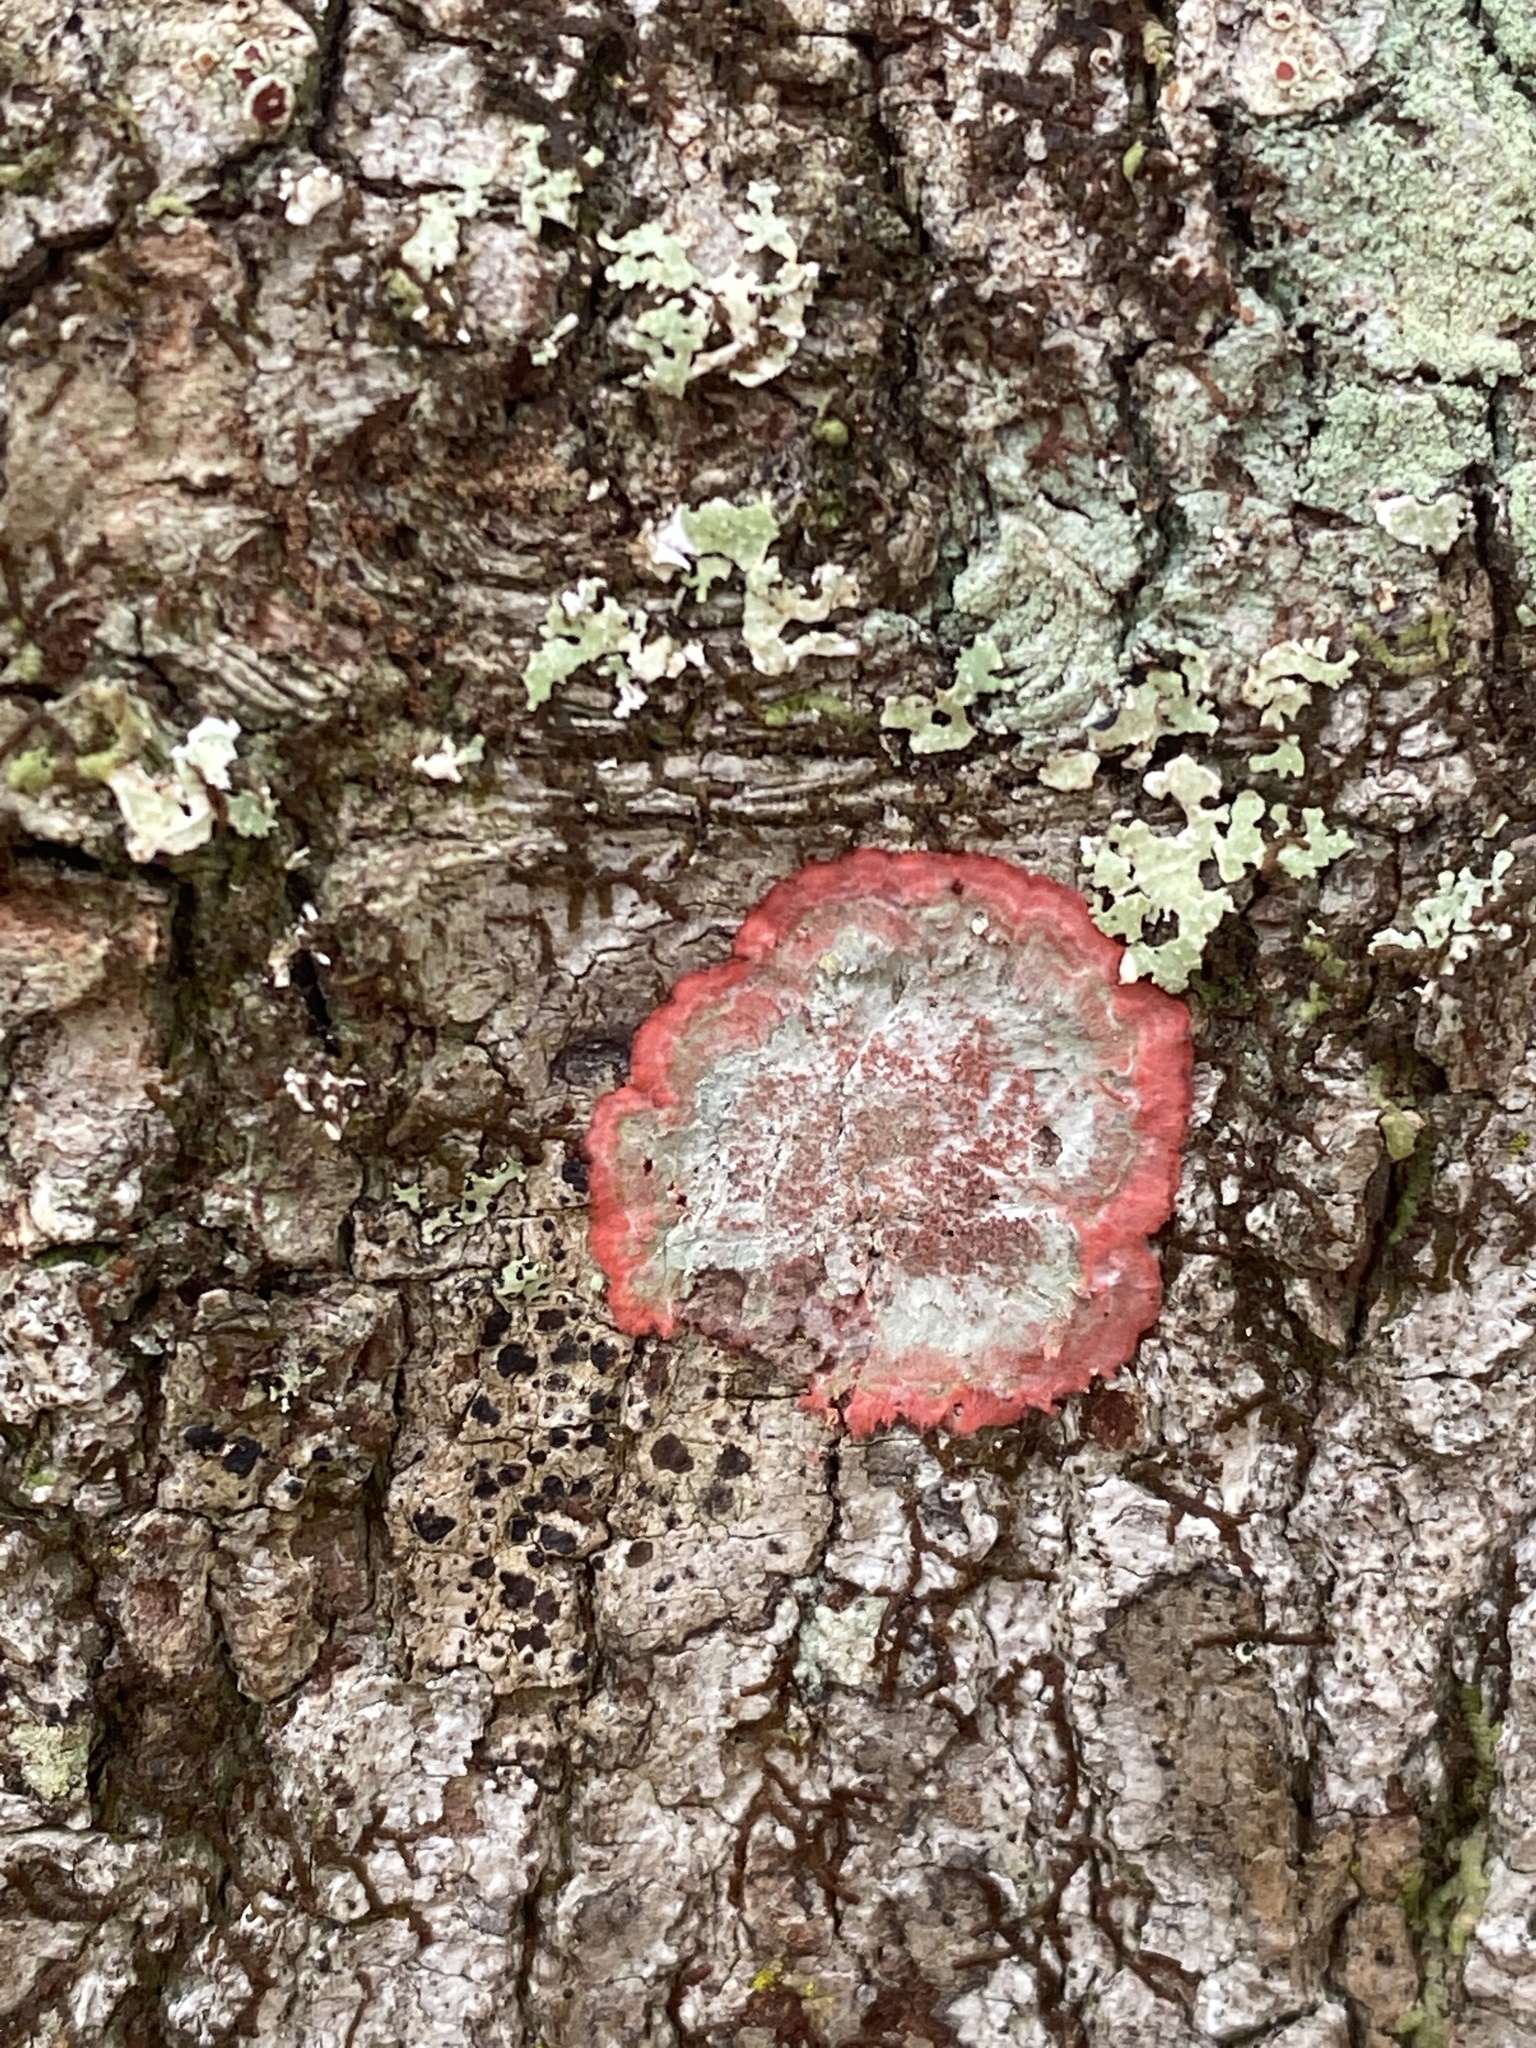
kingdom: Fungi
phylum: Ascomycota
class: Arthoniomycetes
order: Arthoniales
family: Arthoniaceae
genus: Herpothallon
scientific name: Herpothallon rubrocinctum
